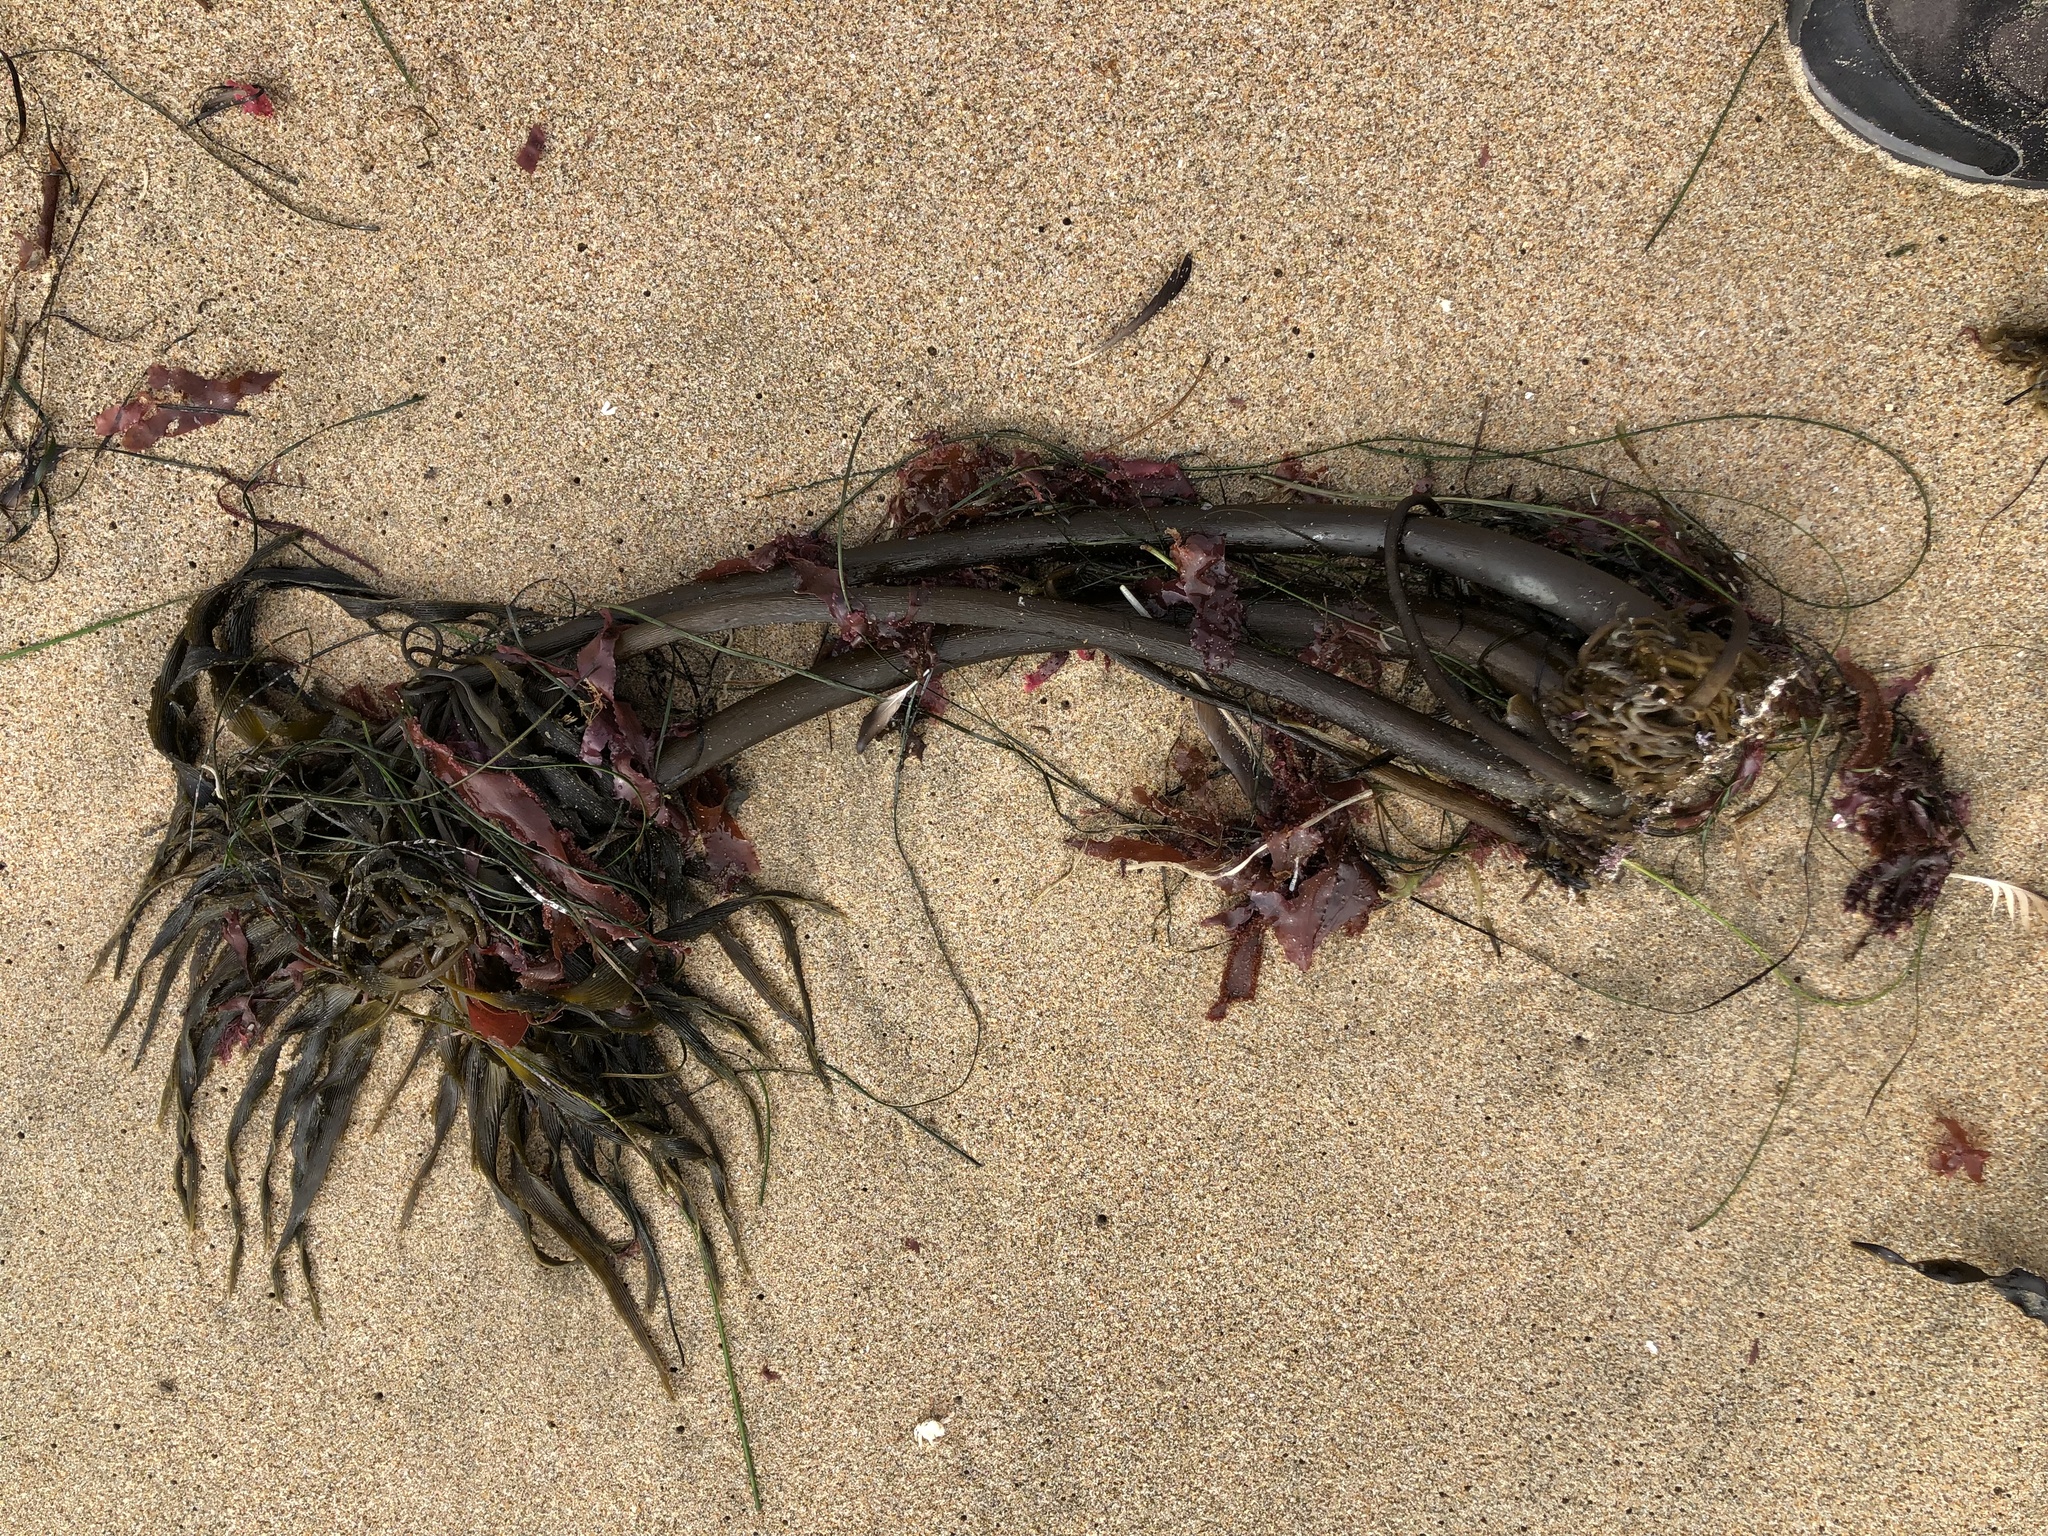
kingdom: Chromista
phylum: Ochrophyta
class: Phaeophyceae
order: Laminariales
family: Laminariaceae
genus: Postelsia
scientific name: Postelsia palmiformis
